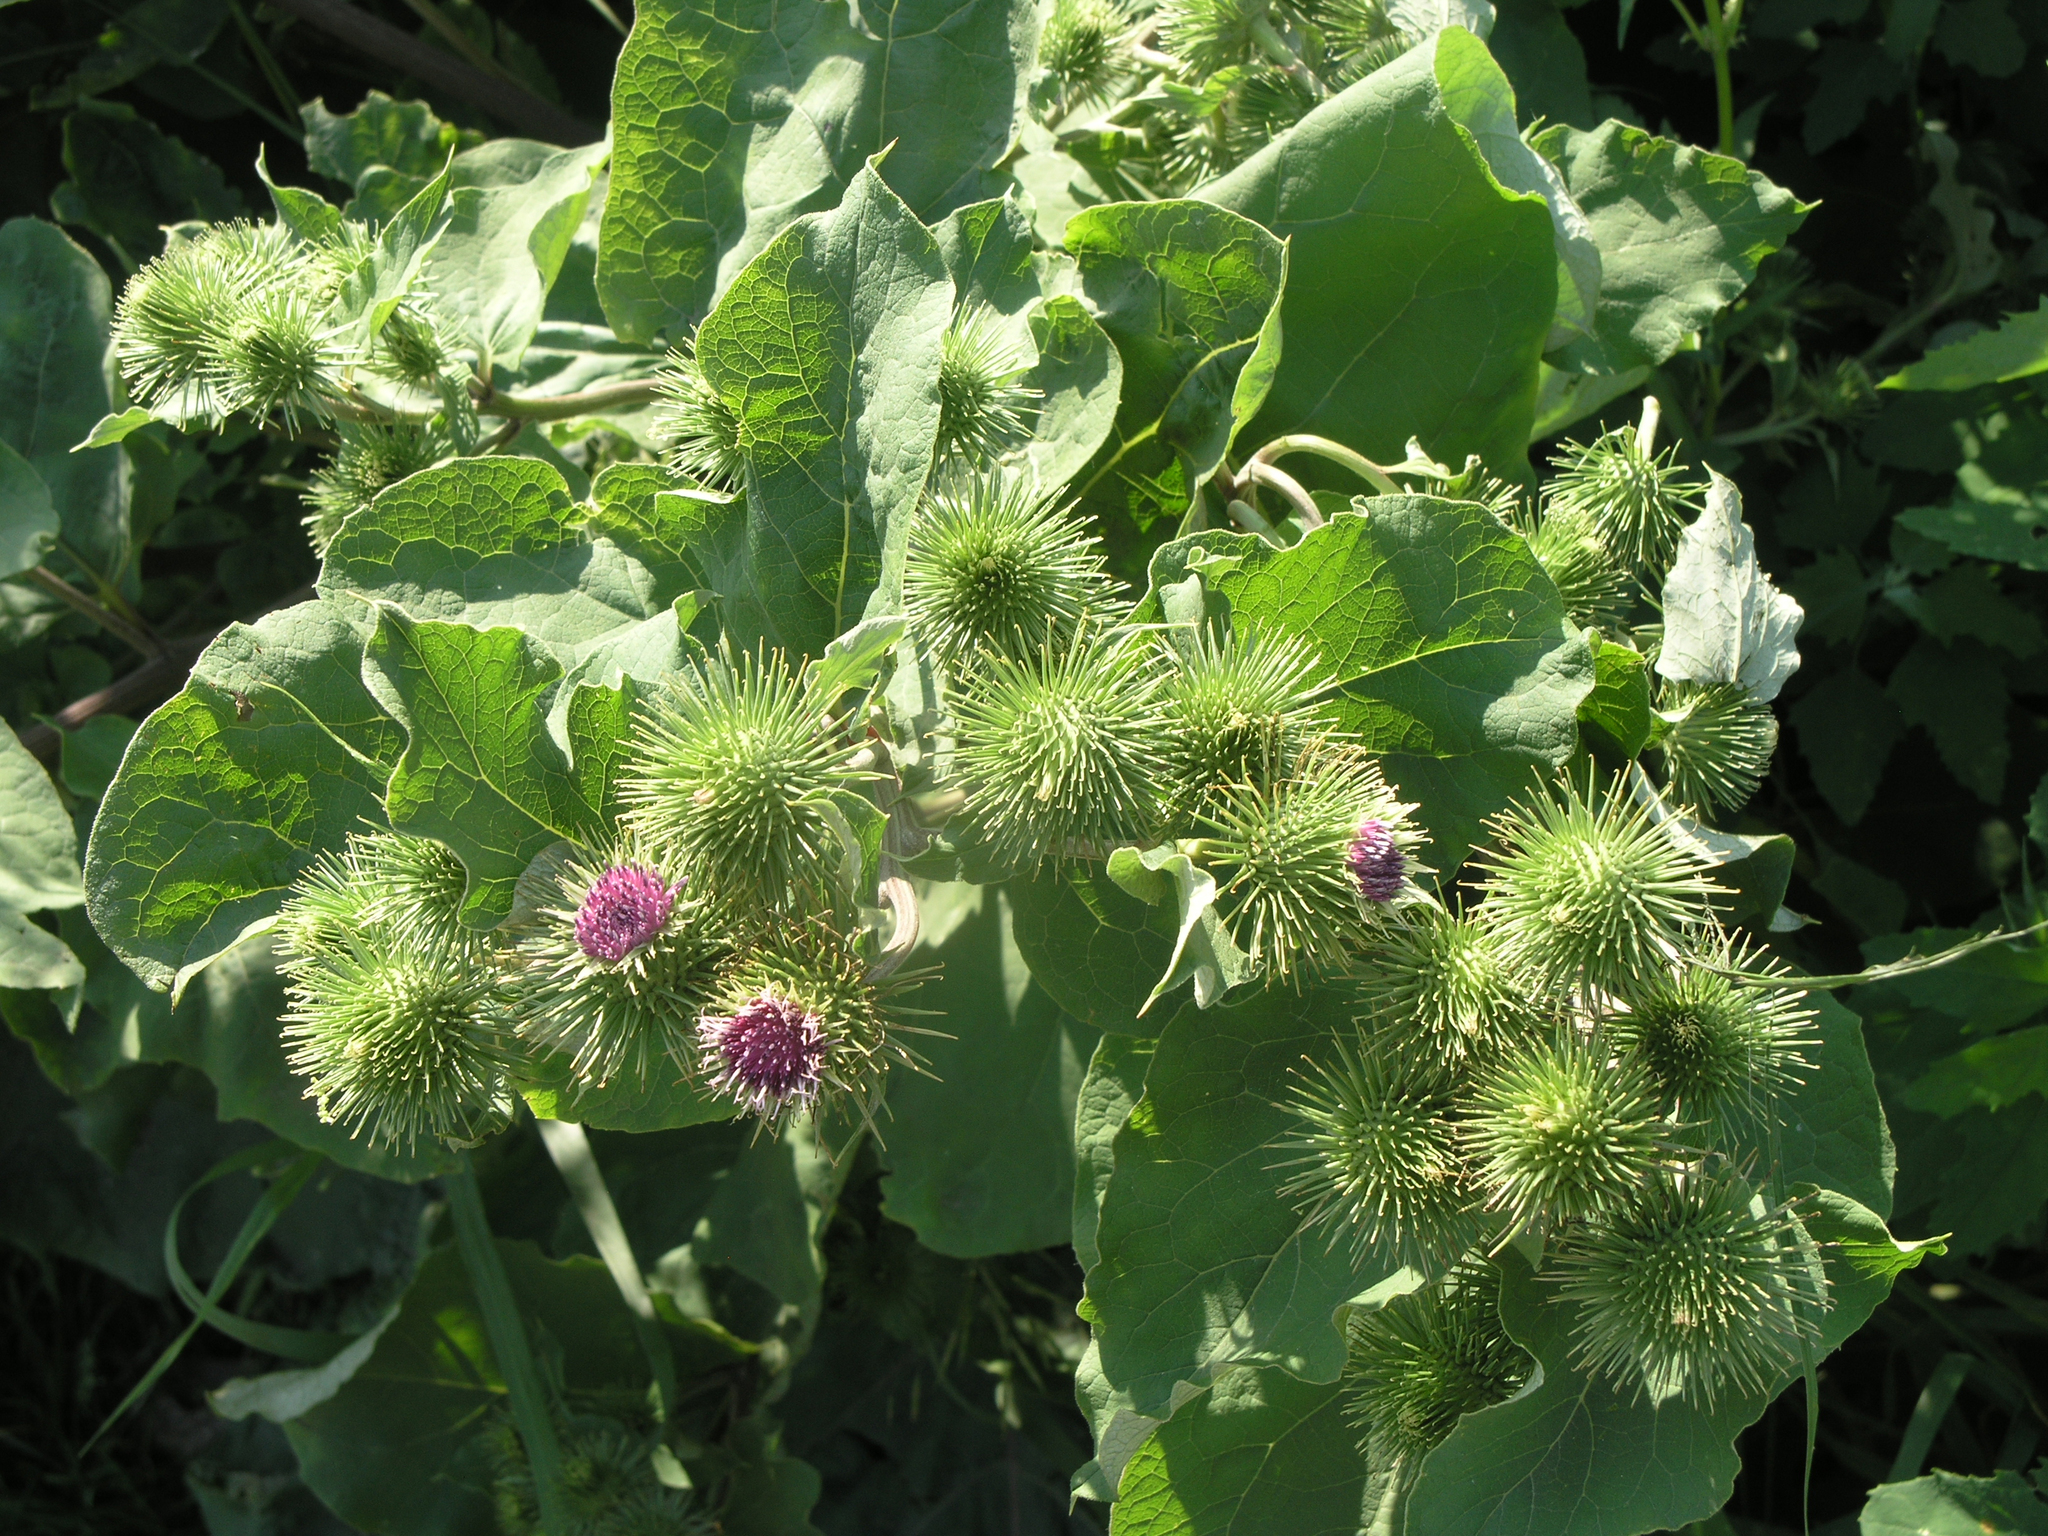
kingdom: Plantae
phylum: Tracheophyta
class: Magnoliopsida
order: Asterales
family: Asteraceae
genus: Arctium
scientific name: Arctium lappa
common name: Greater burdock
